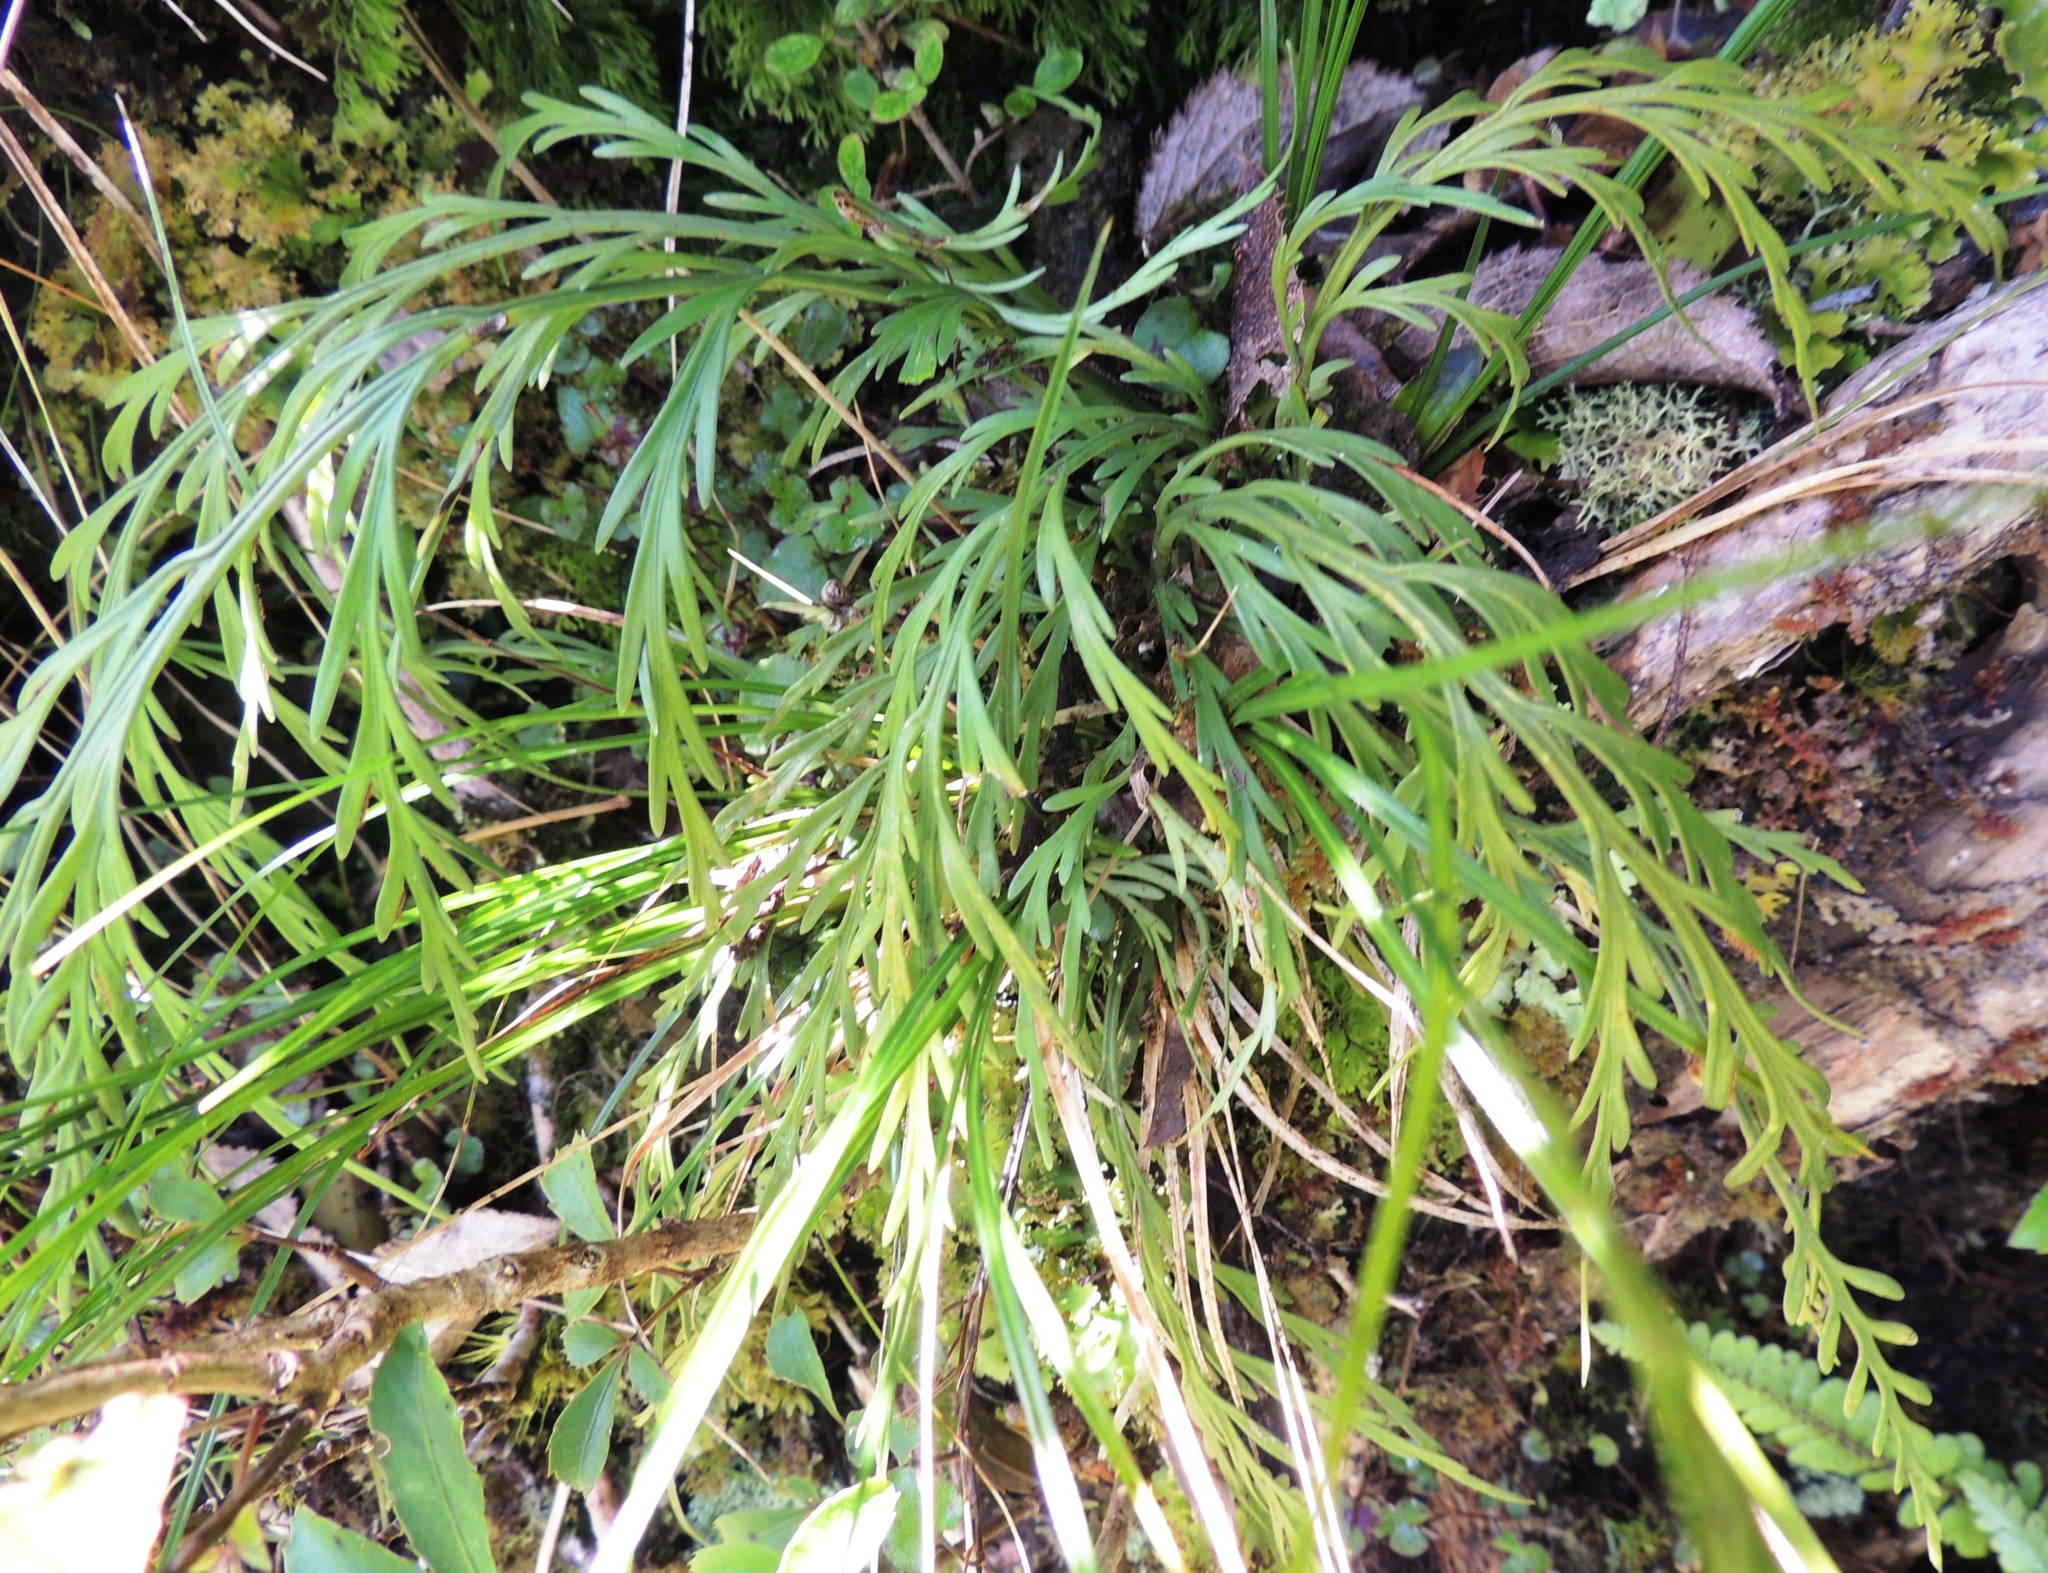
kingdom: Plantae
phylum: Tracheophyta
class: Polypodiopsida
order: Polypodiales
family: Aspleniaceae
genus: Asplenium
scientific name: Asplenium flaccidum
